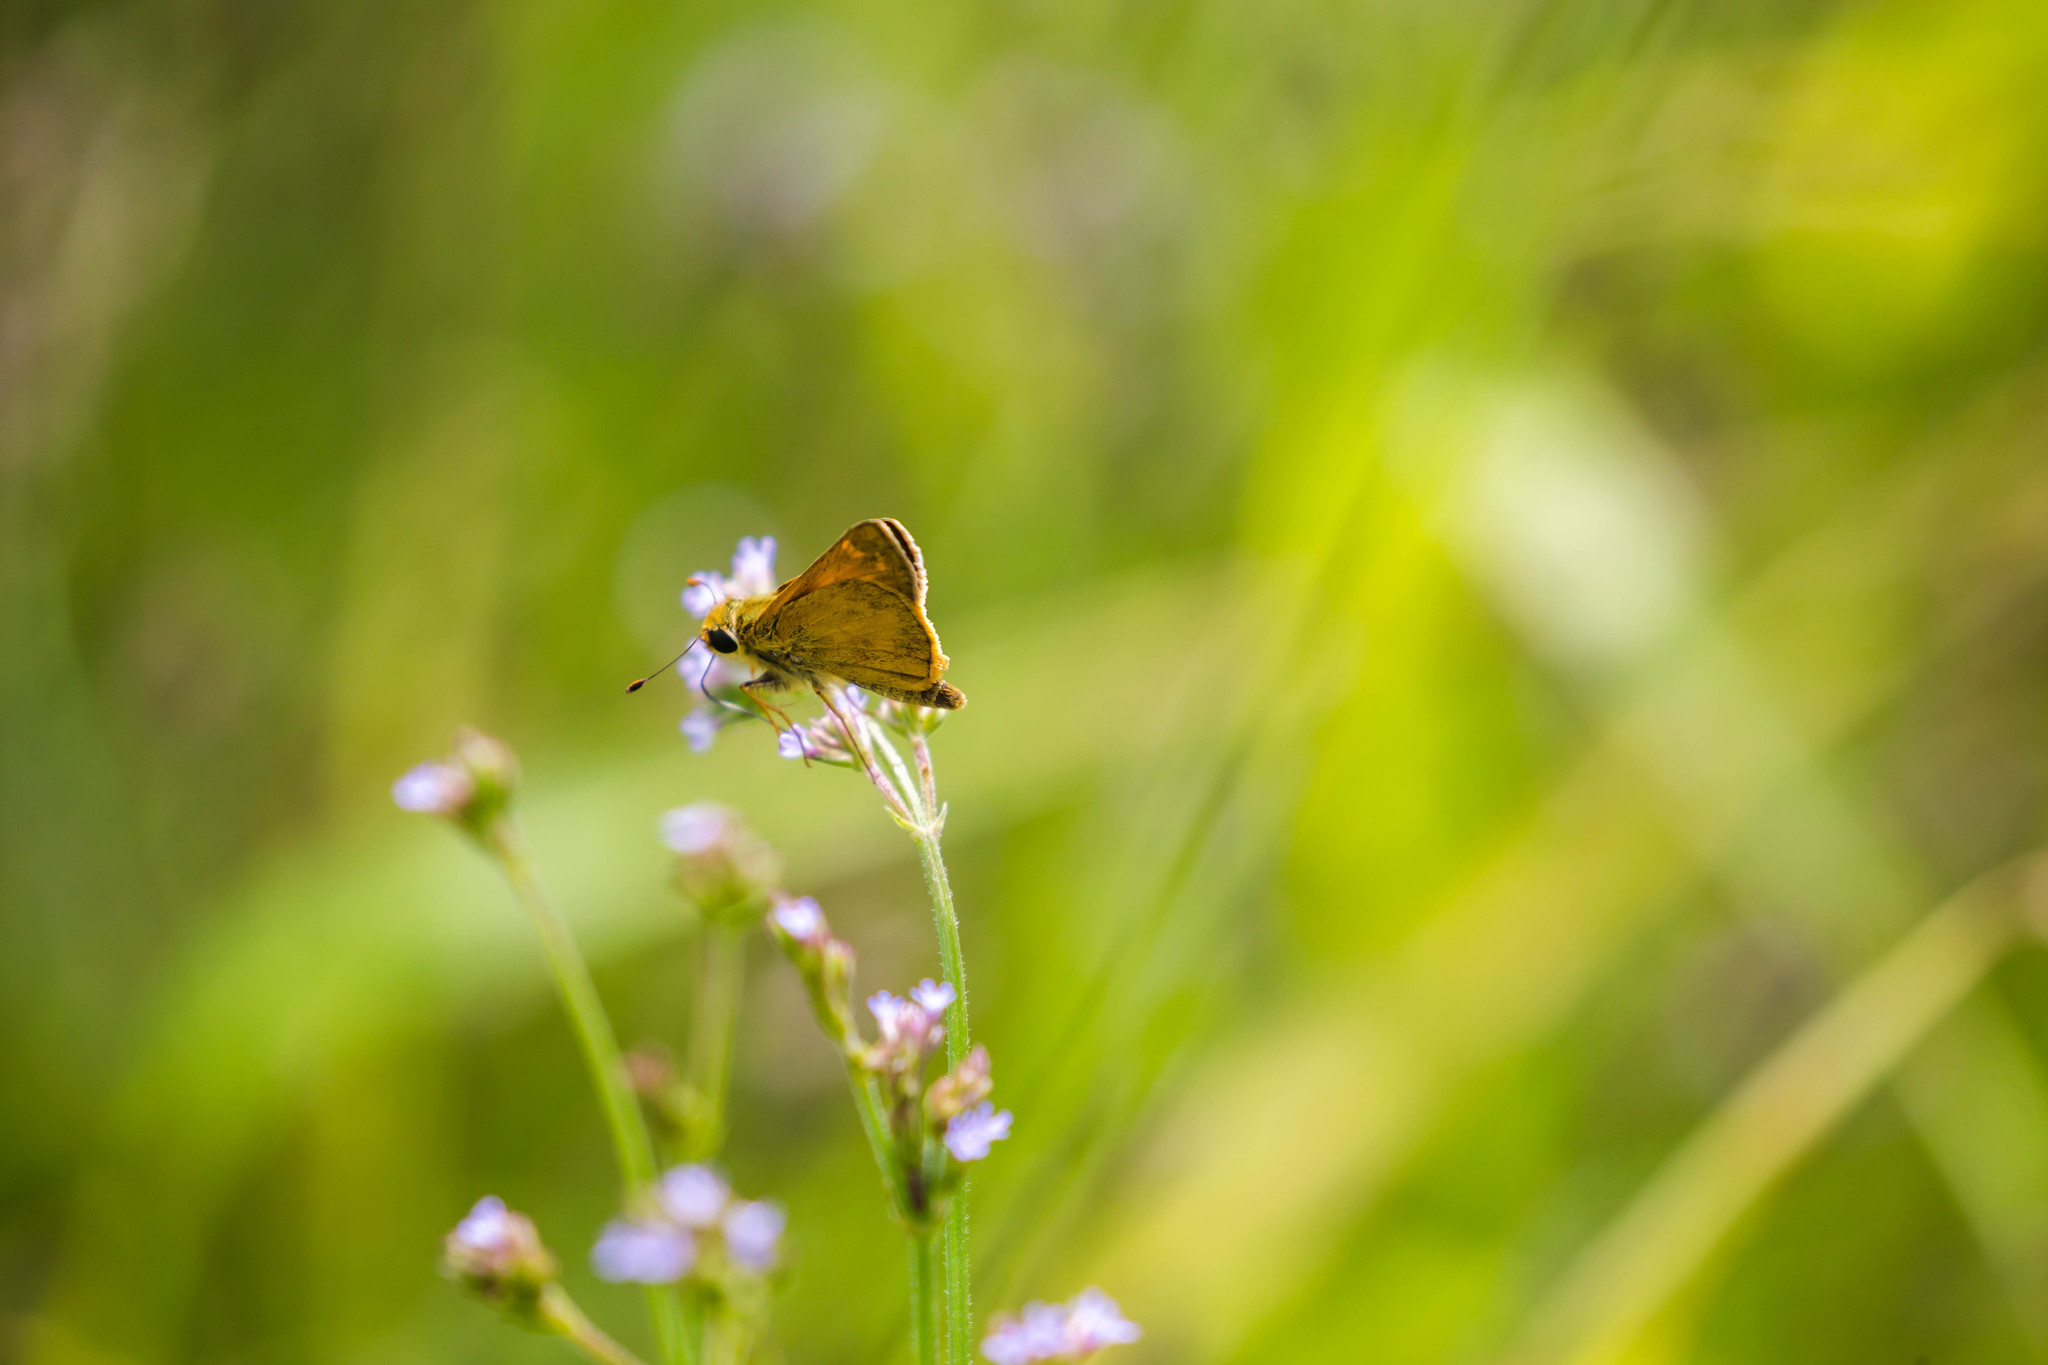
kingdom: Animalia
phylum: Arthropoda
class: Insecta
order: Lepidoptera
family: Hesperiidae
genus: Atalopedes
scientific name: Atalopedes
